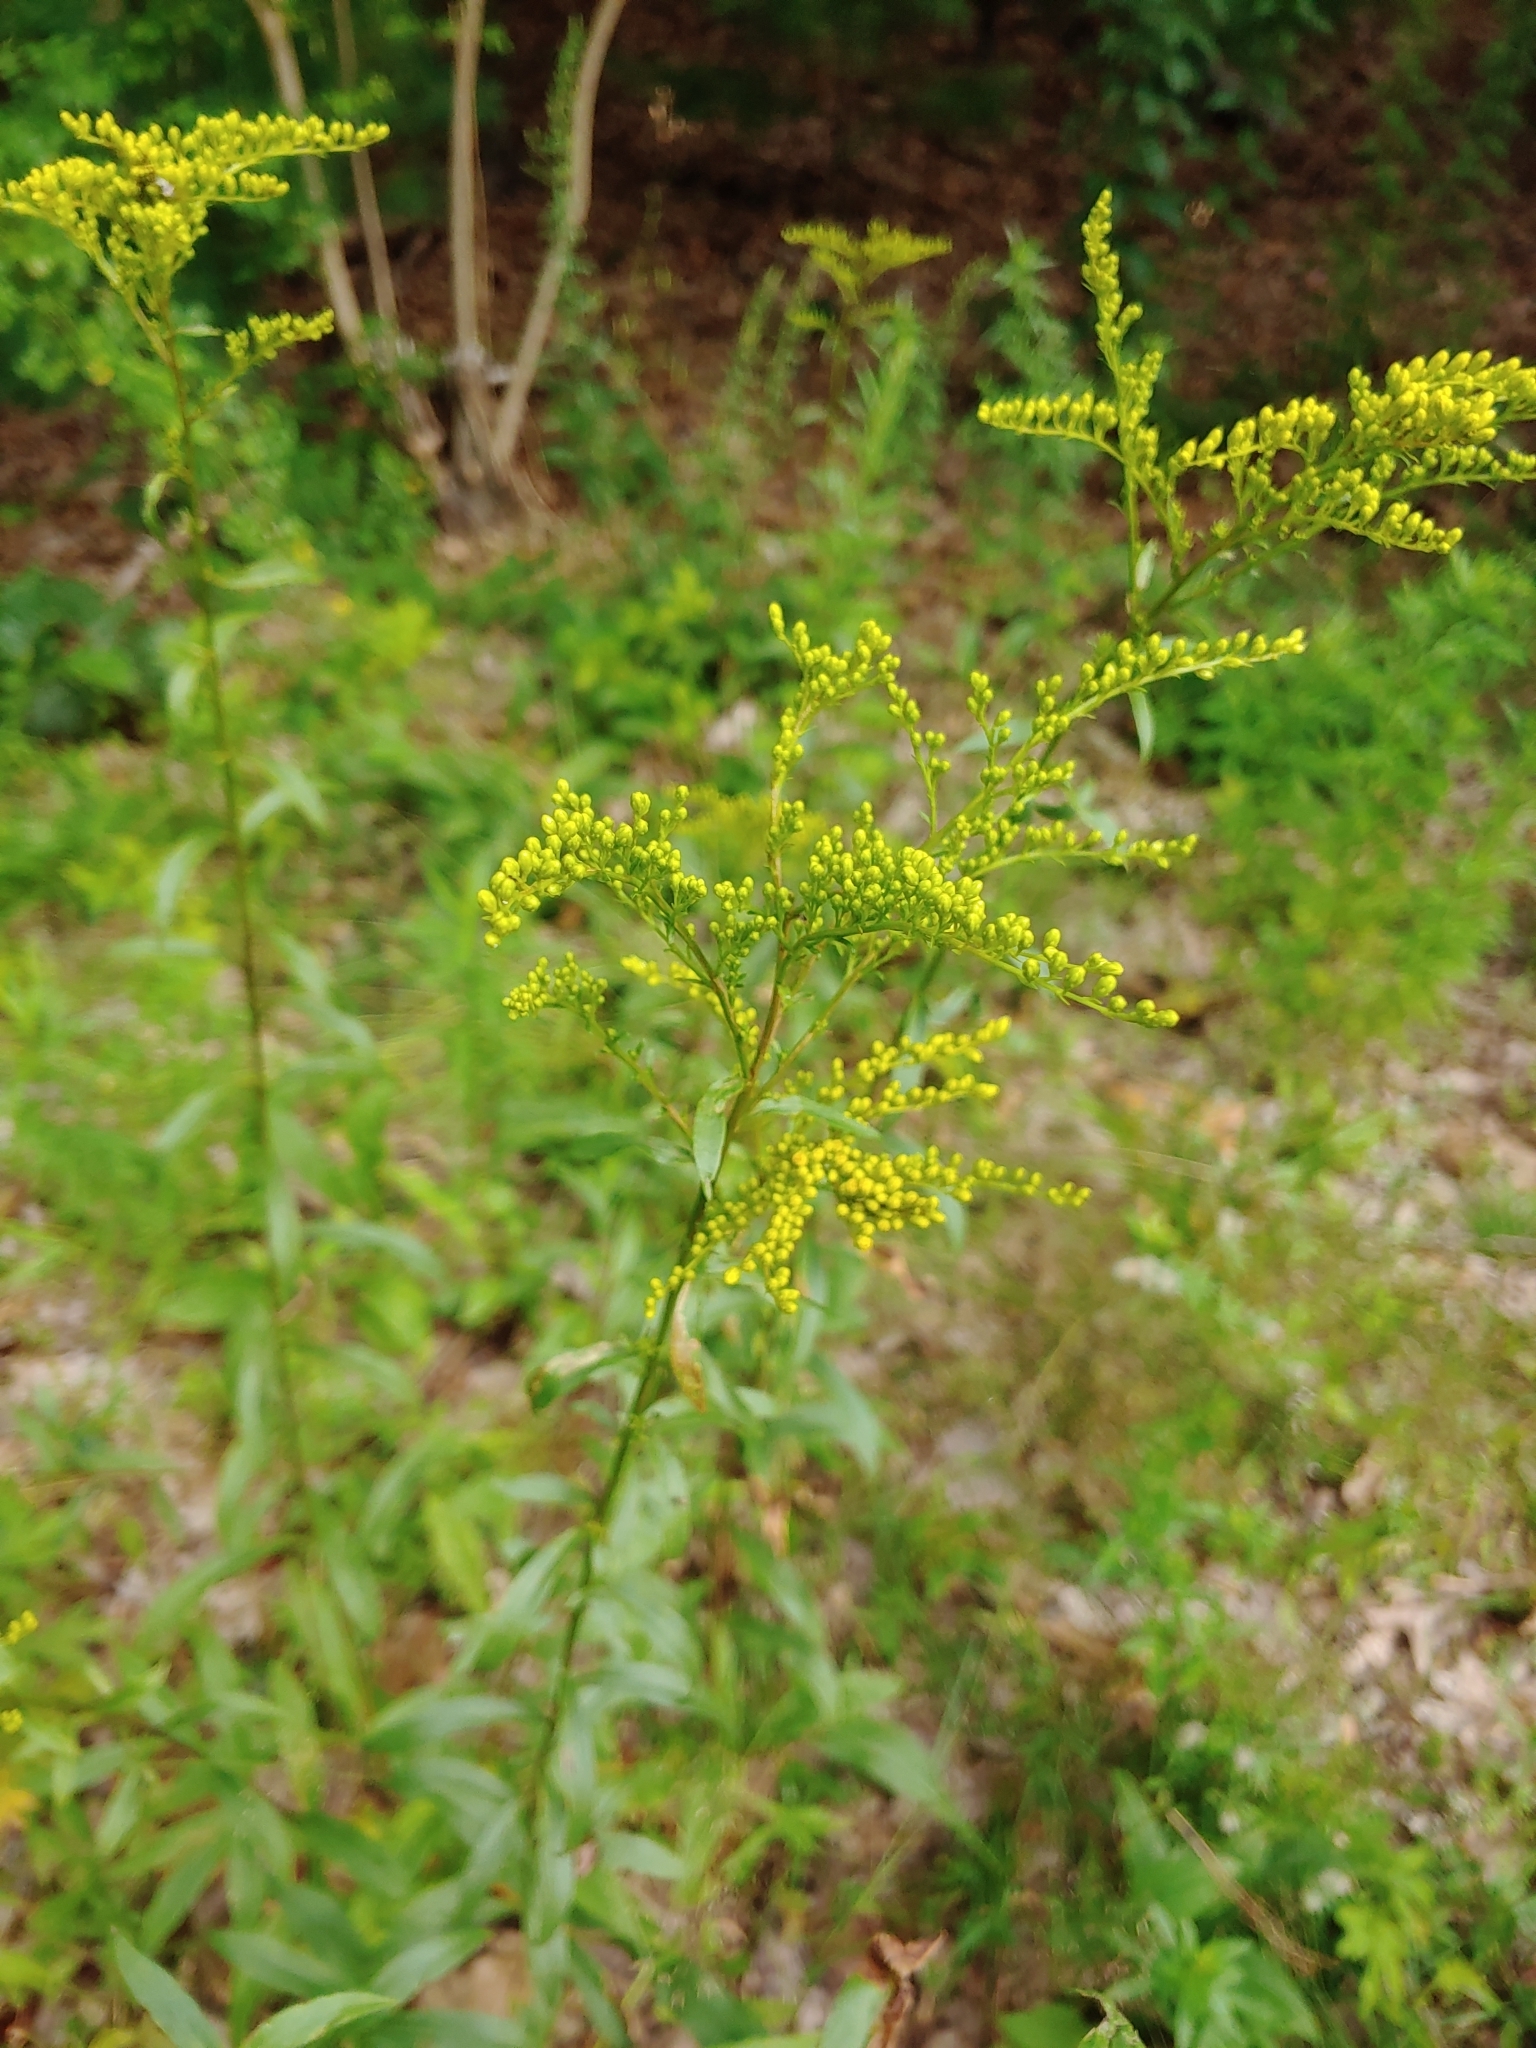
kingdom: Plantae
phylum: Tracheophyta
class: Magnoliopsida
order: Asterales
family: Asteraceae
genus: Solidago
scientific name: Solidago juncea
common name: Early goldenrod
